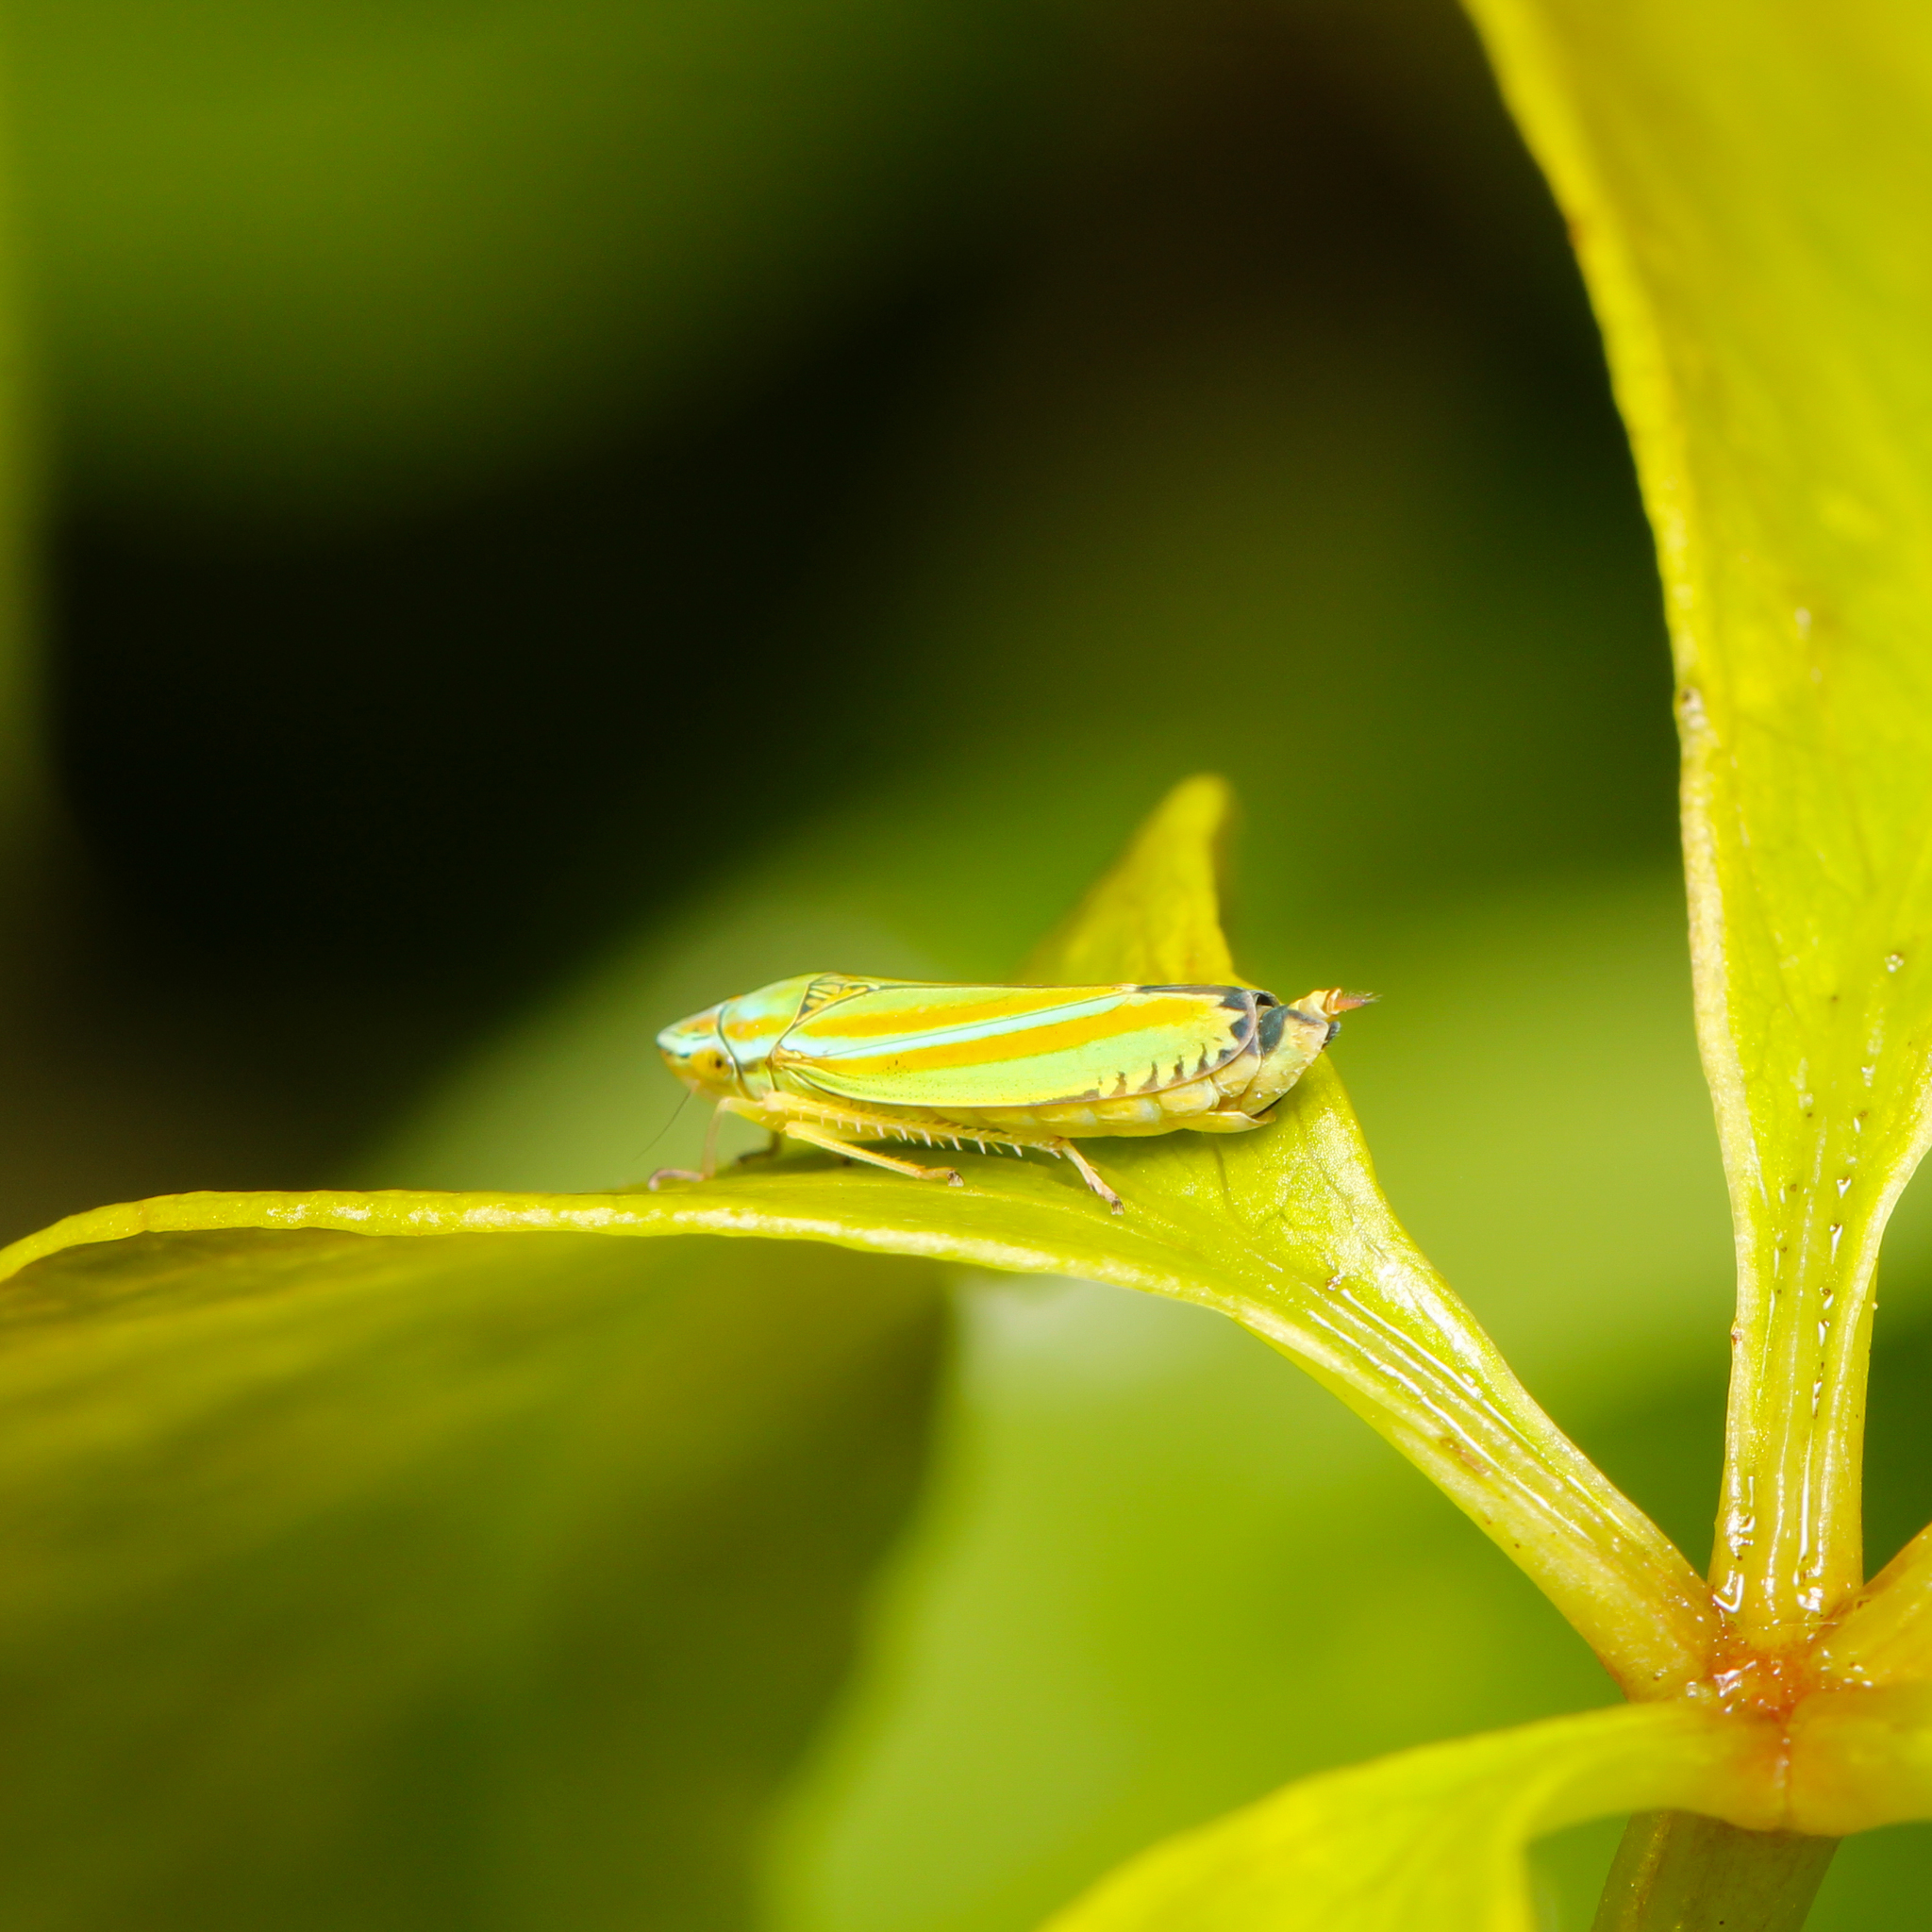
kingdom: Animalia
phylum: Arthropoda
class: Insecta
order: Hemiptera
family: Cicadellidae
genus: Graphocephala
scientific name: Graphocephala versuta
